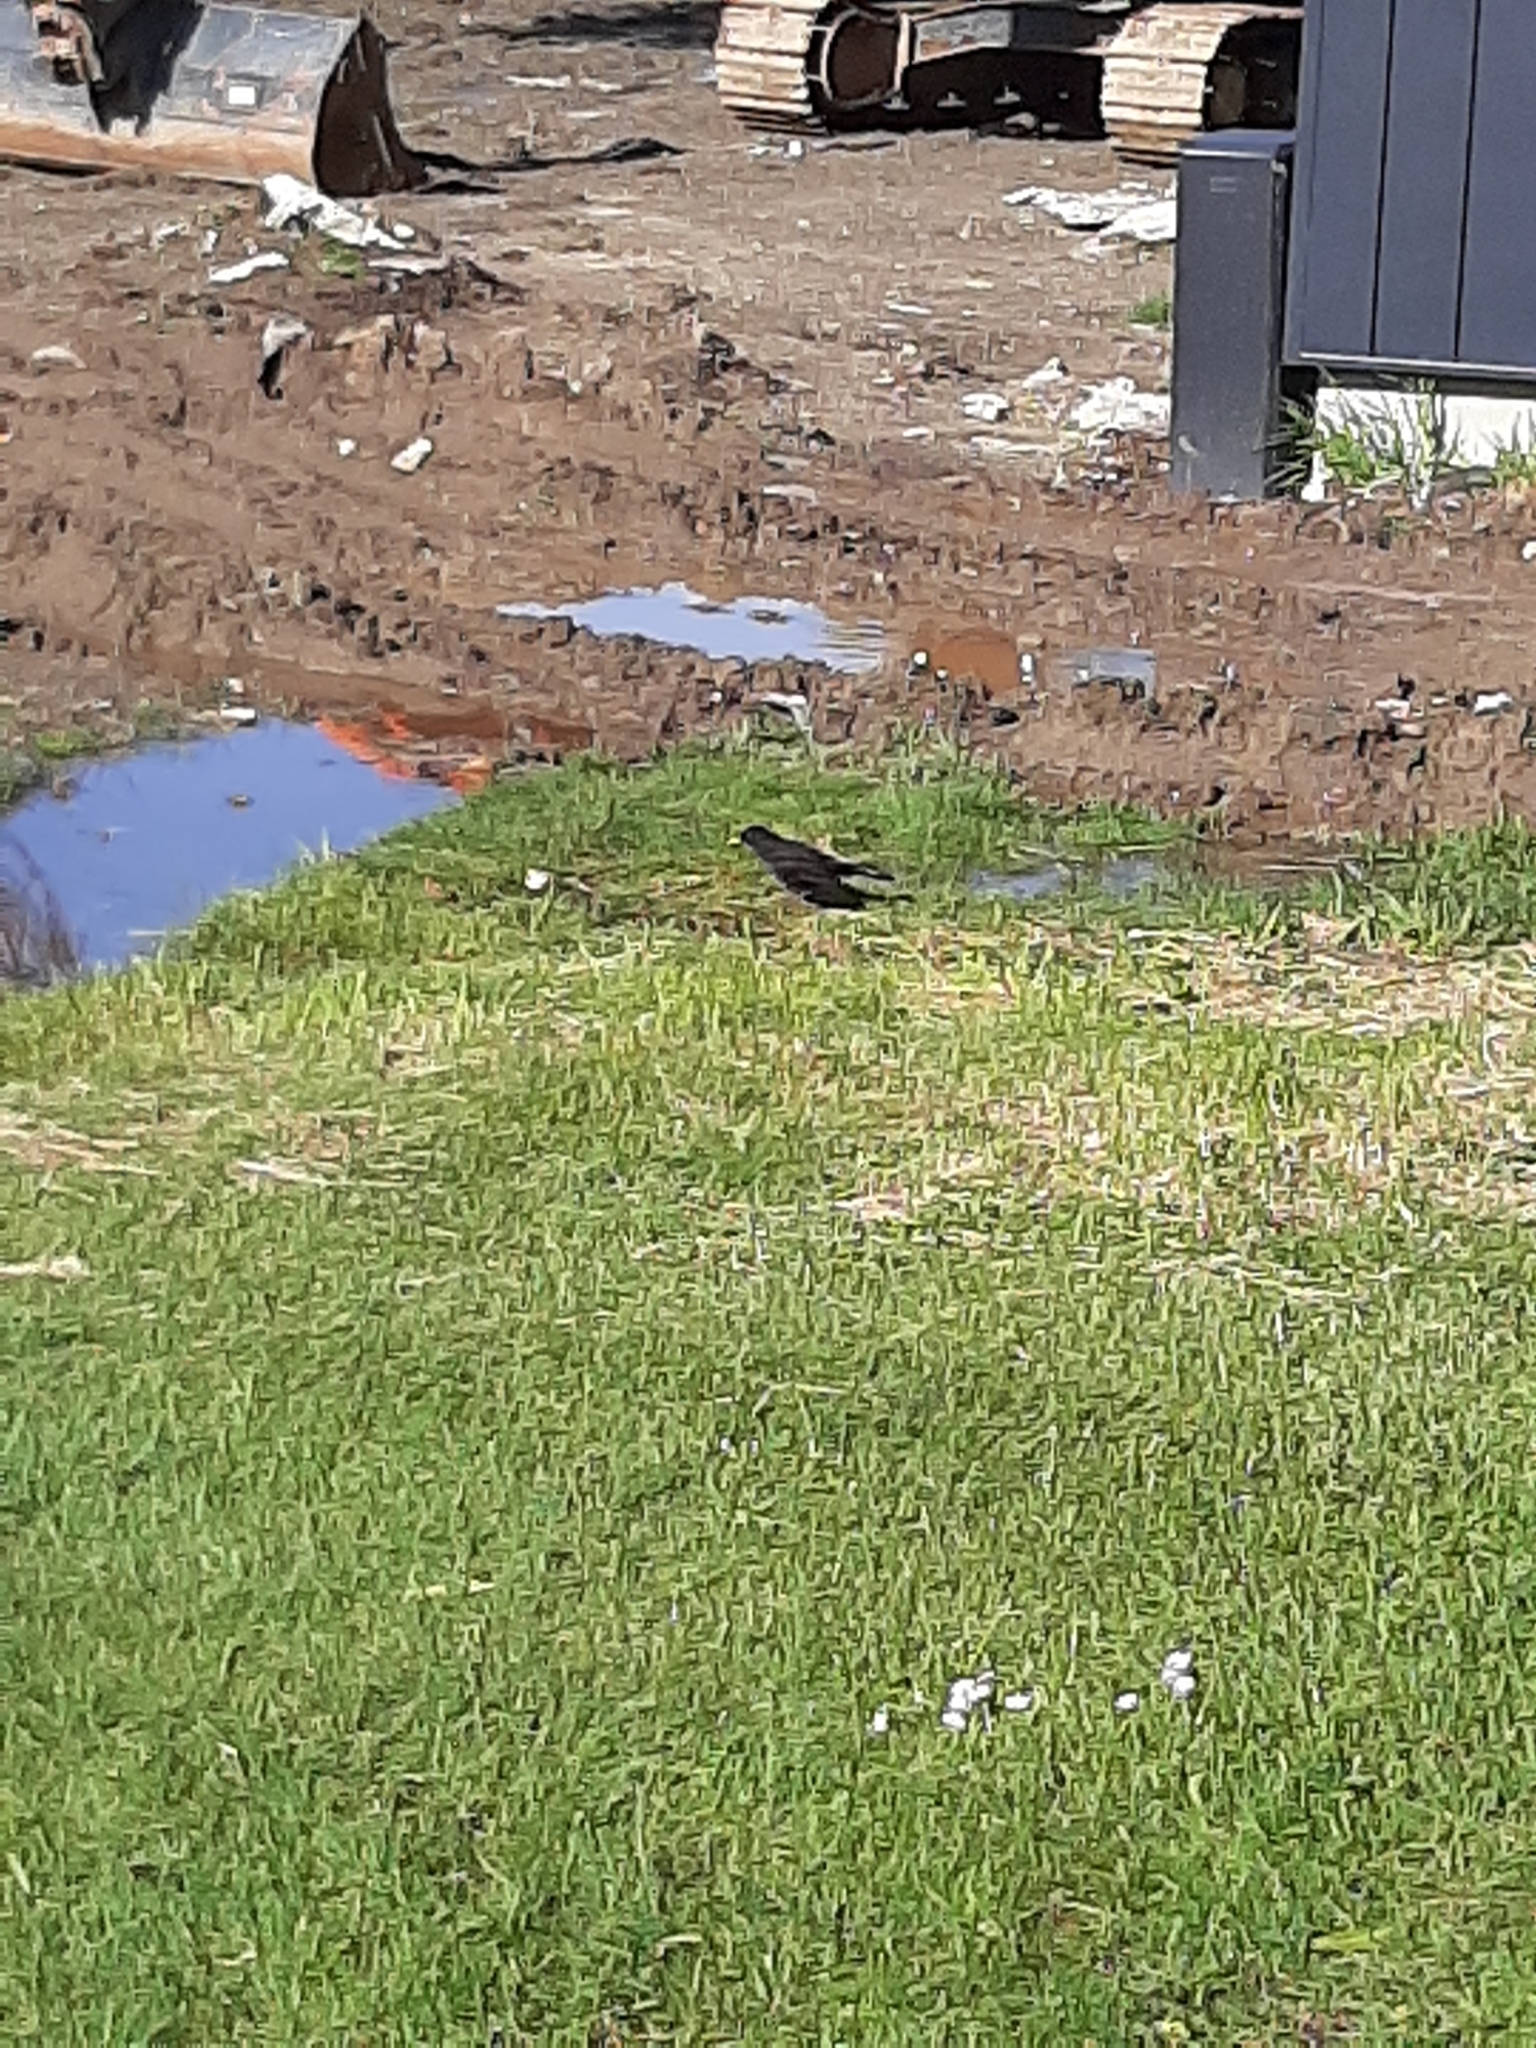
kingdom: Animalia
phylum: Chordata
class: Aves
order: Passeriformes
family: Turdidae
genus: Turdus
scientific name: Turdus merula
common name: Common blackbird
